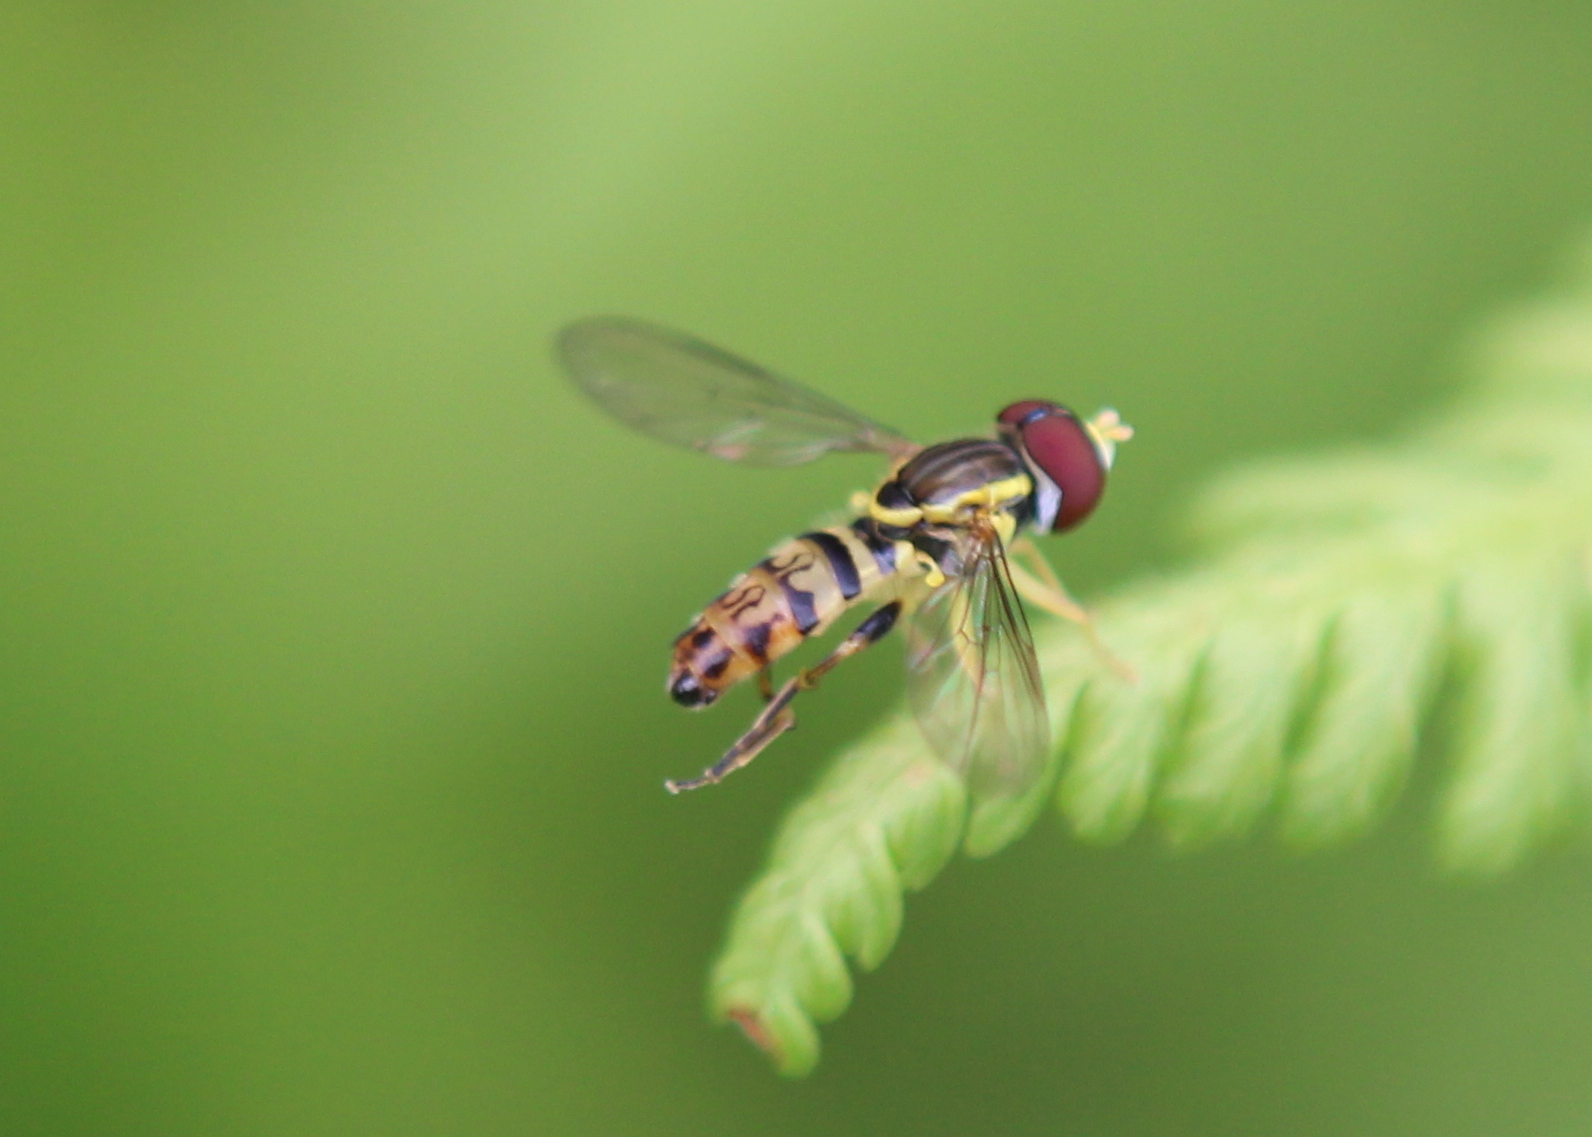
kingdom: Animalia
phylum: Arthropoda
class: Insecta
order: Diptera
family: Syrphidae
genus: Toxomerus
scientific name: Toxomerus geminatus
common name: Eastern calligrapher
